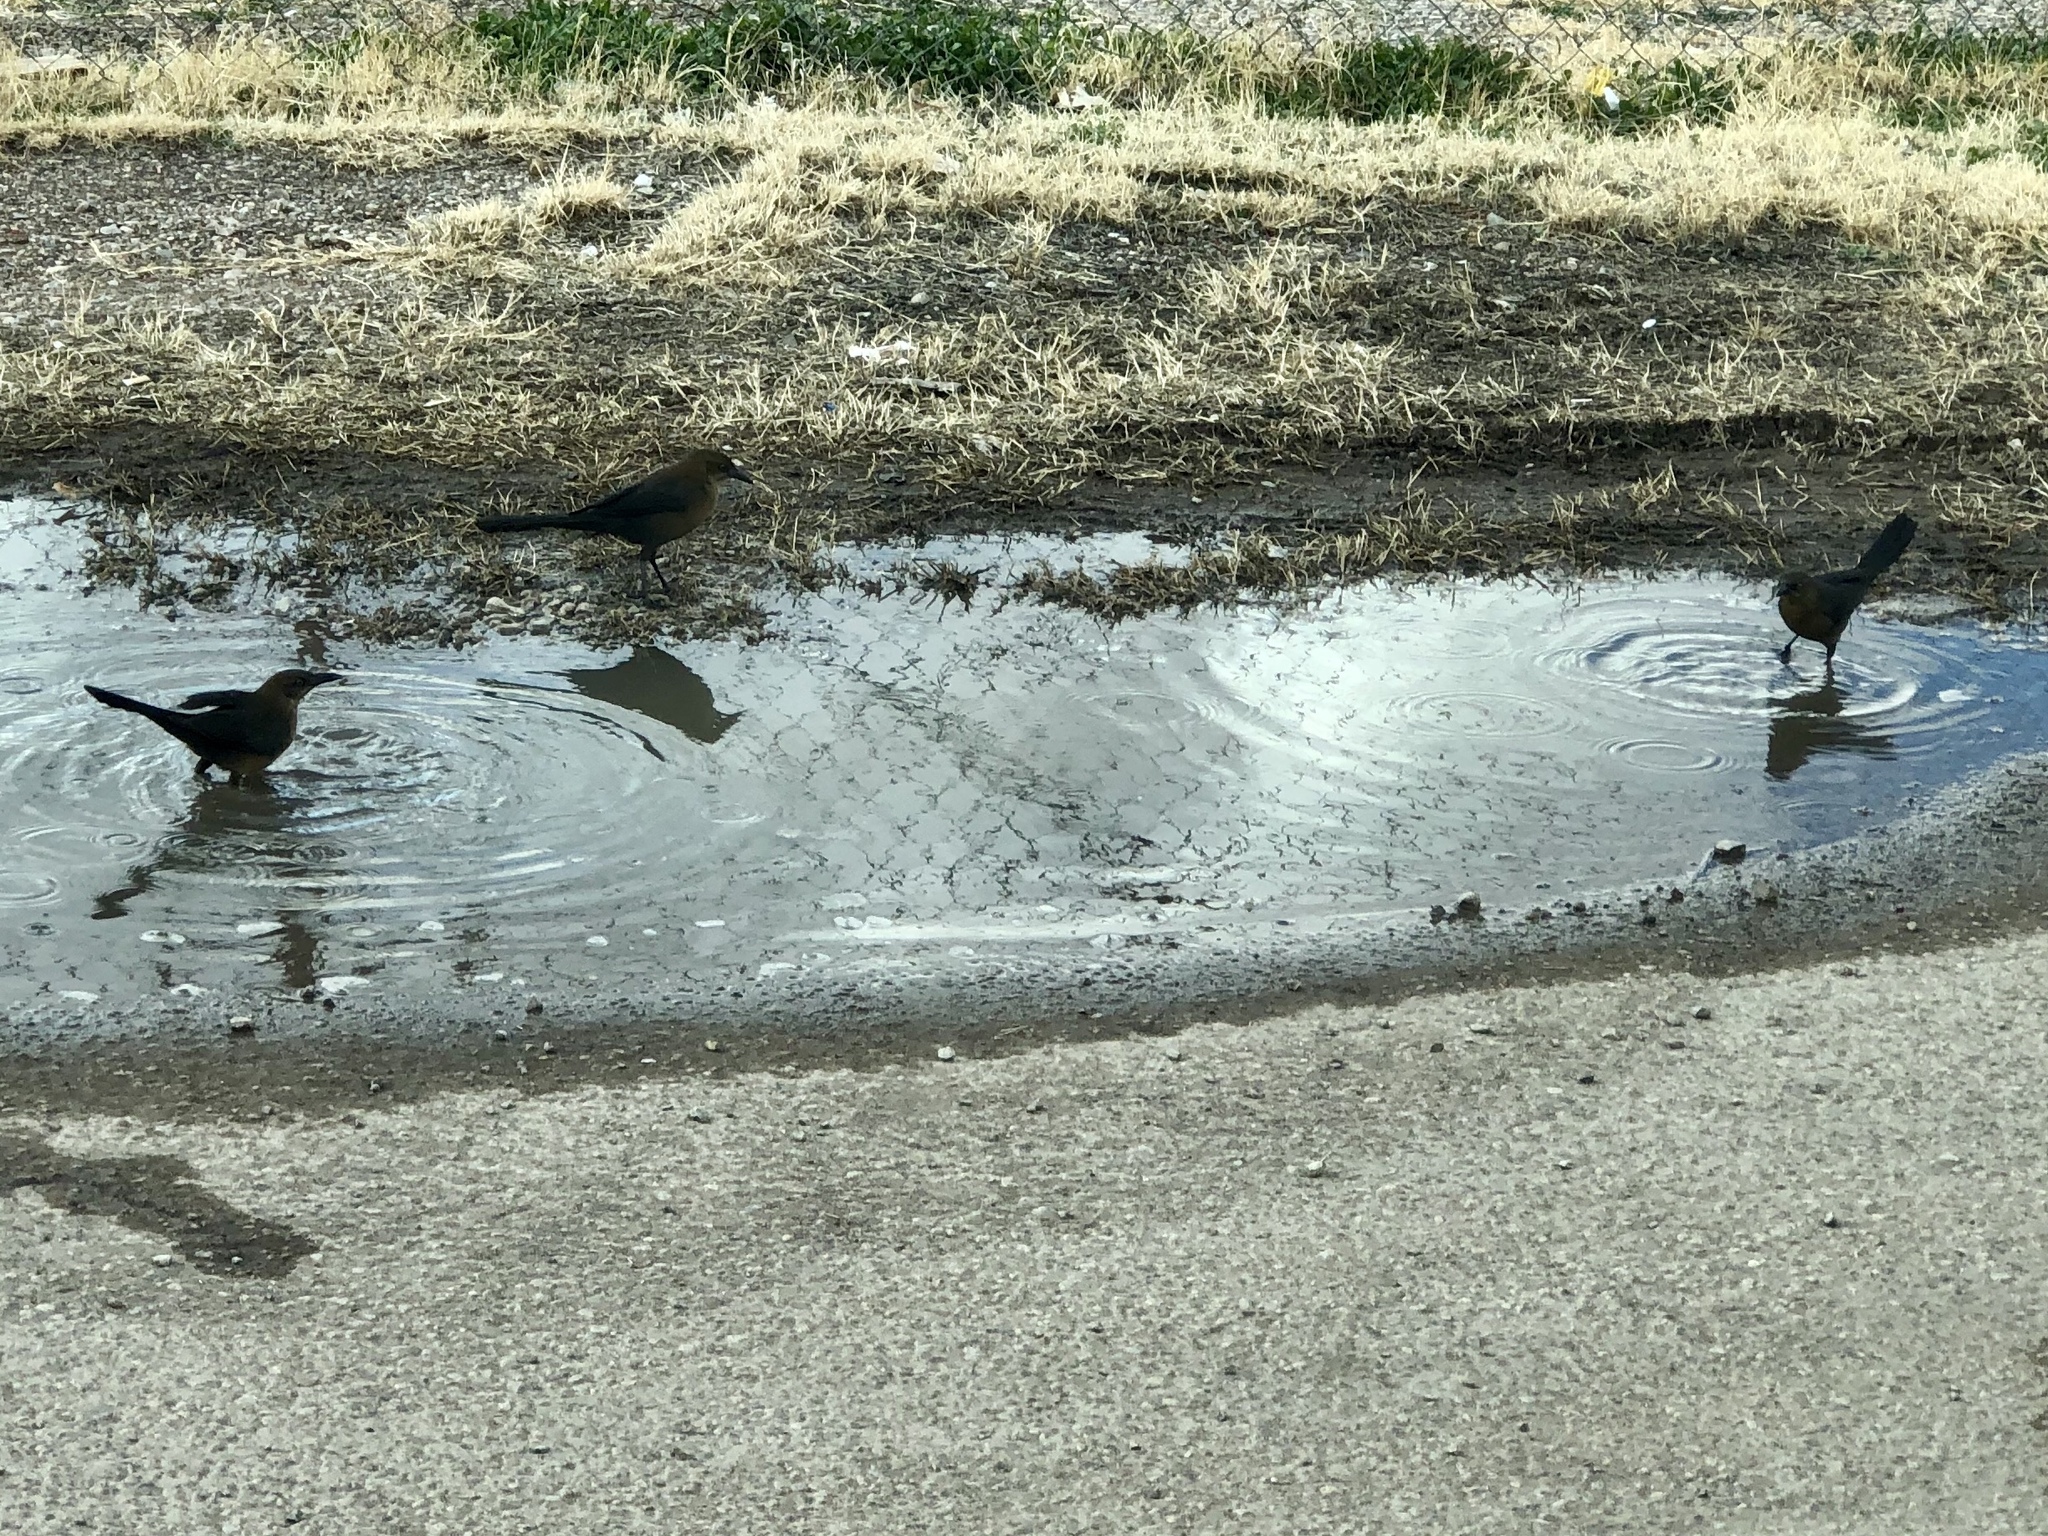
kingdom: Animalia
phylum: Chordata
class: Aves
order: Passeriformes
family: Icteridae
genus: Quiscalus
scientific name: Quiscalus mexicanus
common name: Great-tailed grackle
